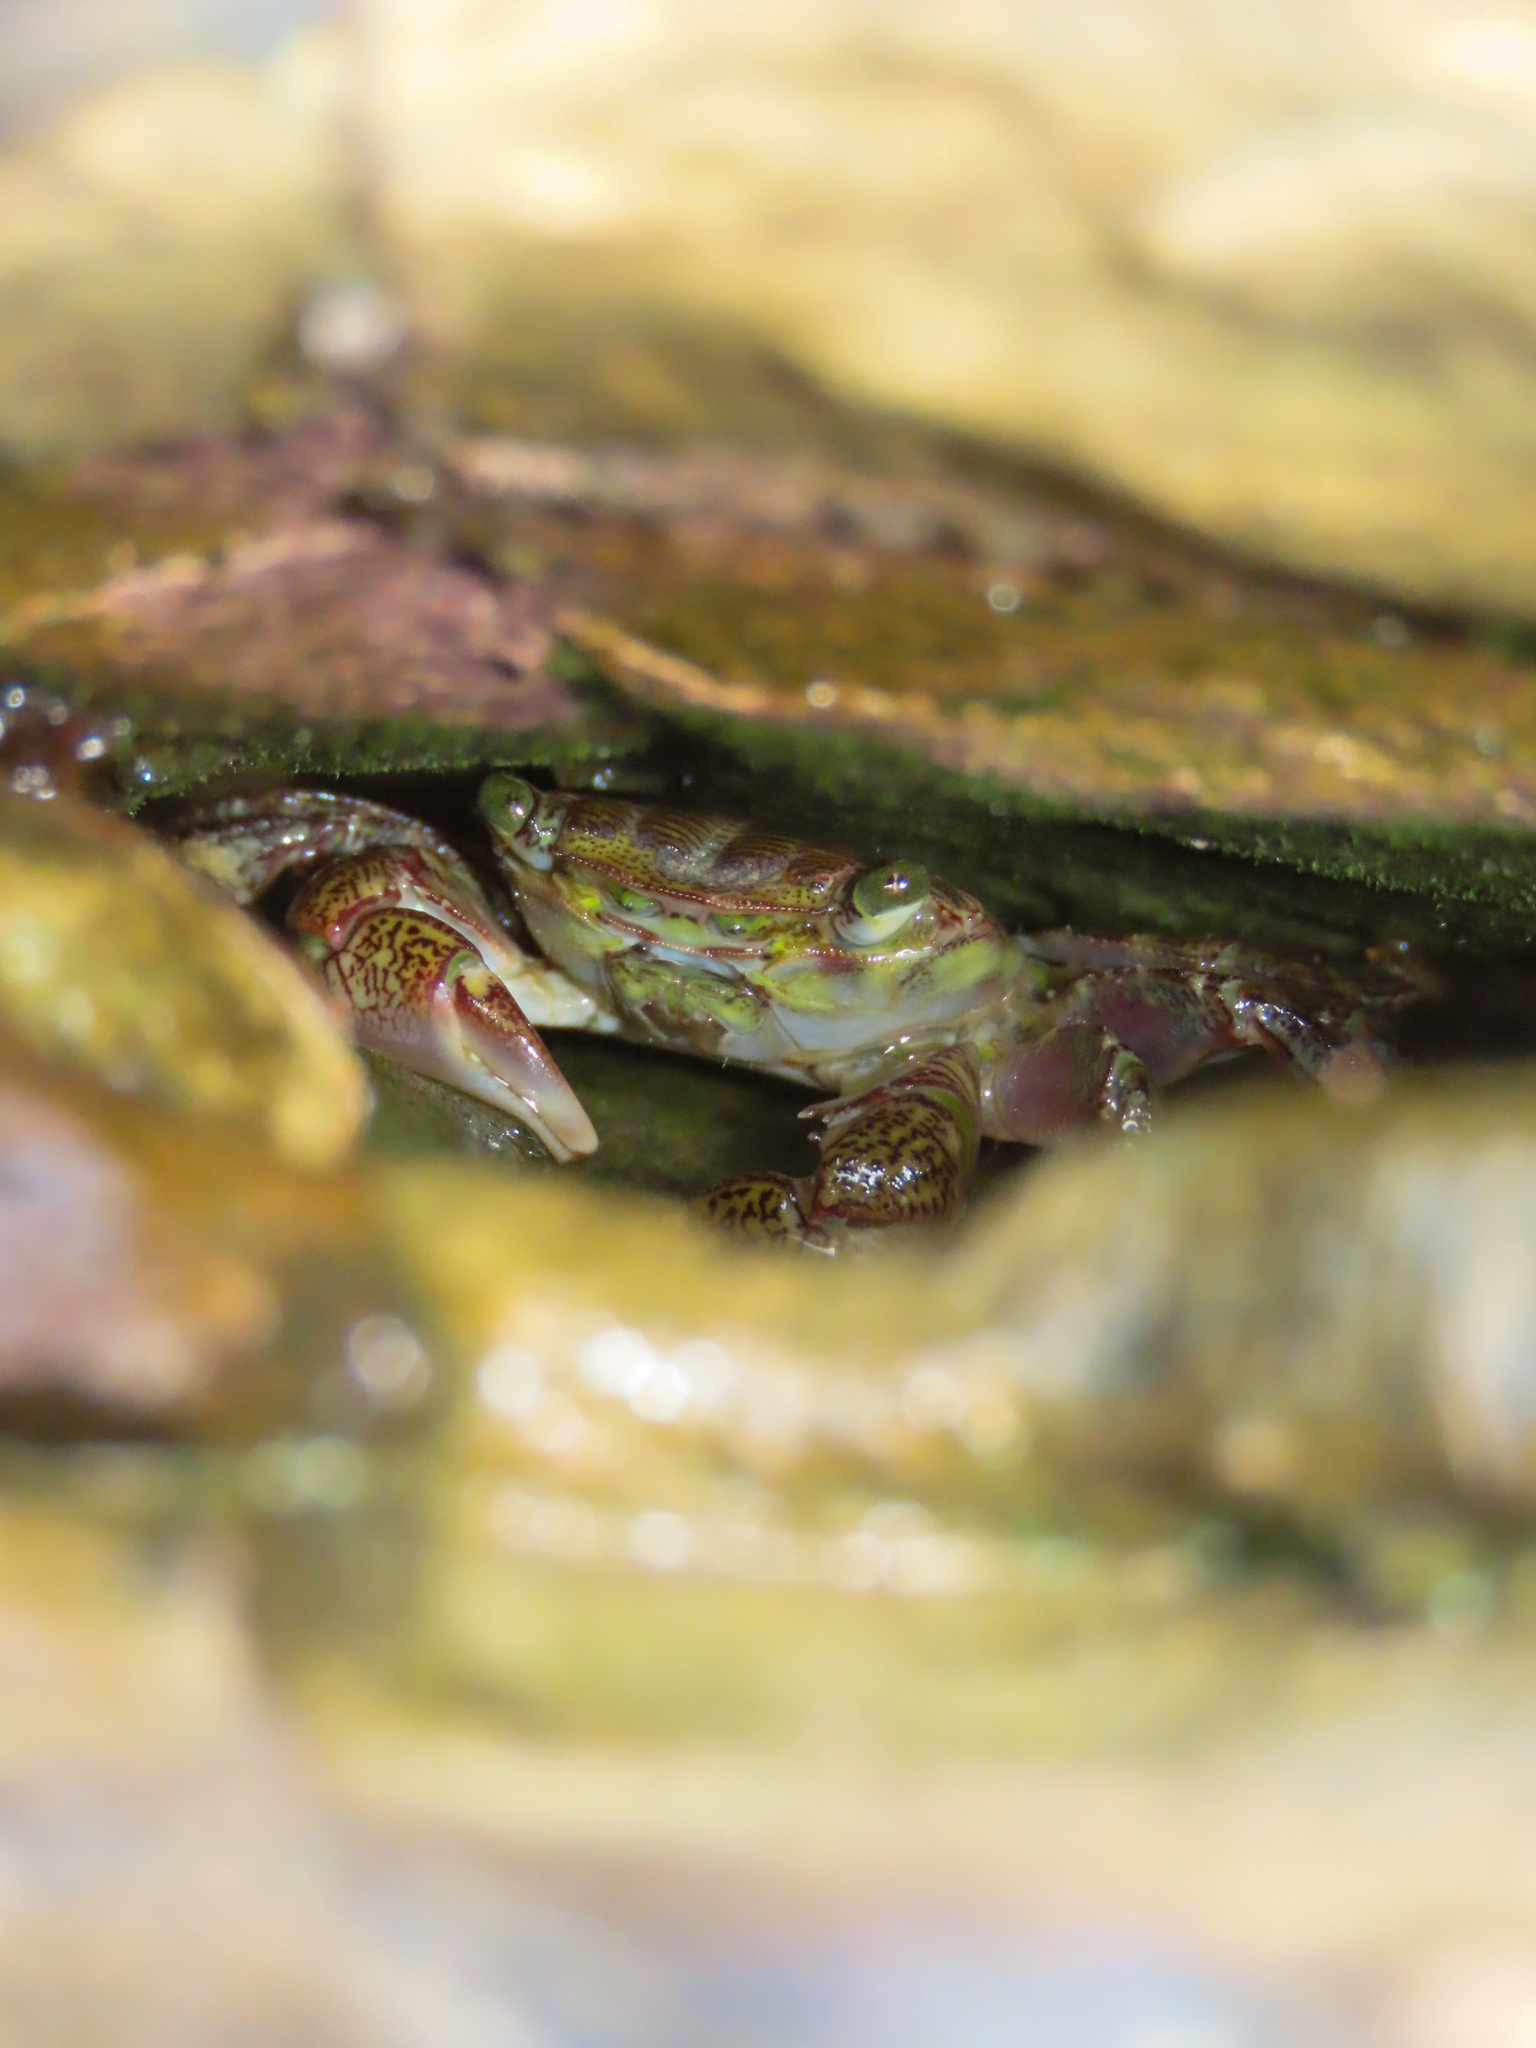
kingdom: Animalia
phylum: Arthropoda
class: Malacostraca
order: Decapoda
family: Grapsidae
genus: Pachygrapsus
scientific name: Pachygrapsus crassipes
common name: Striped shore crab
